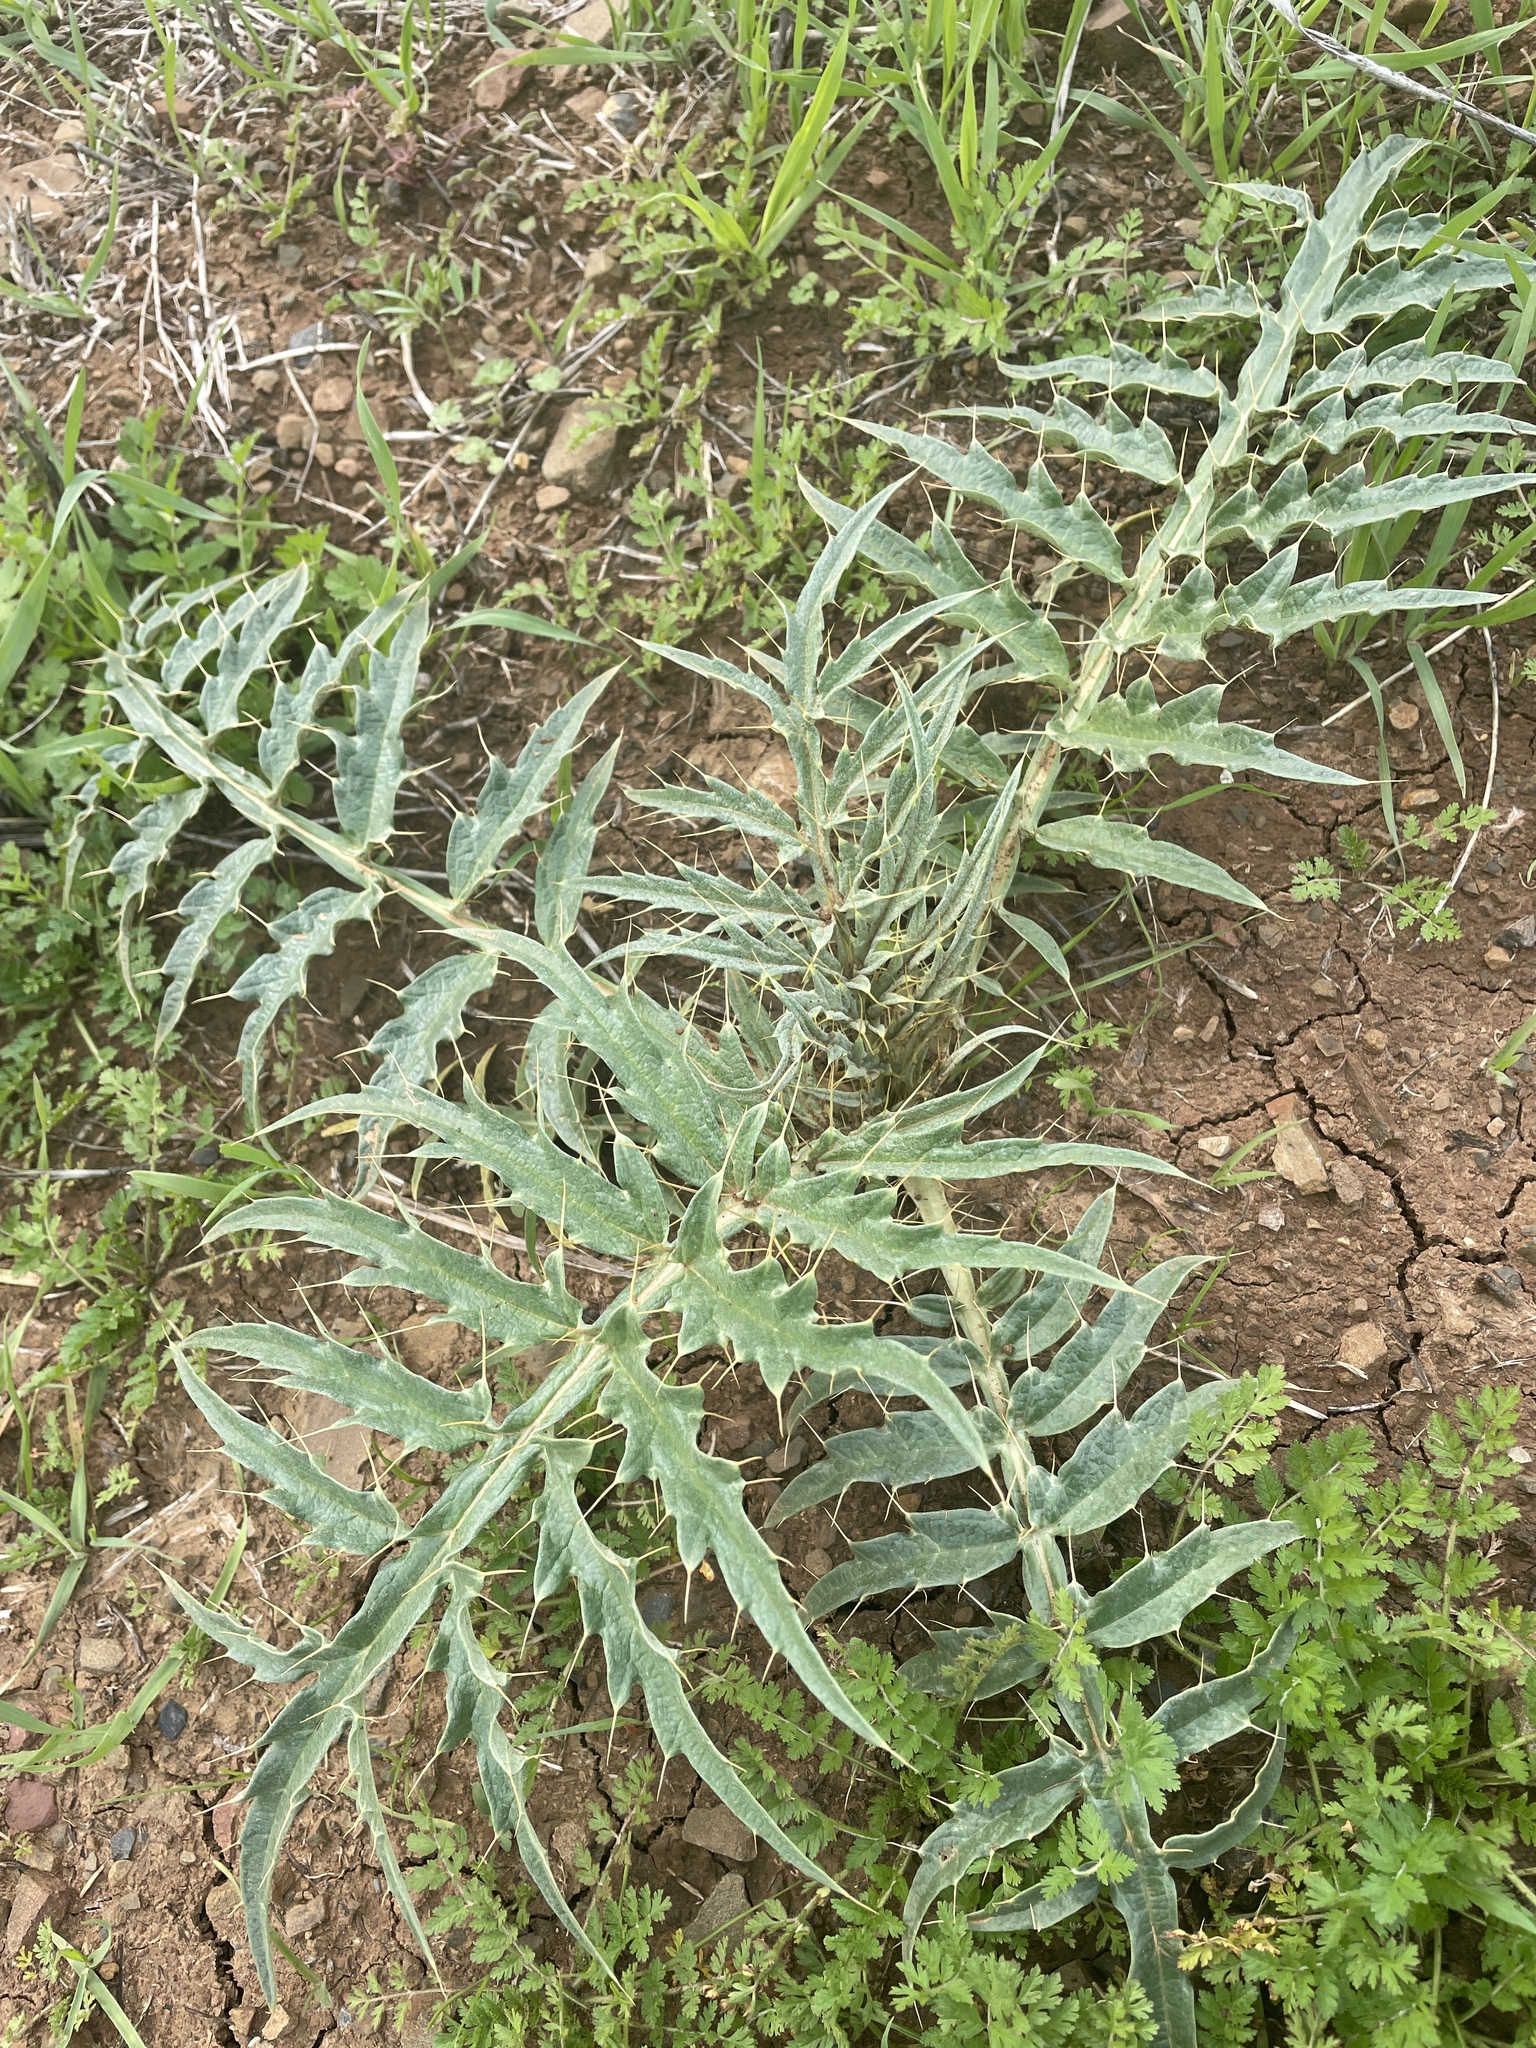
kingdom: Plantae
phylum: Tracheophyta
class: Magnoliopsida
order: Asterales
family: Asteraceae
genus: Cynara
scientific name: Cynara cardunculus
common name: Globe artichoke
